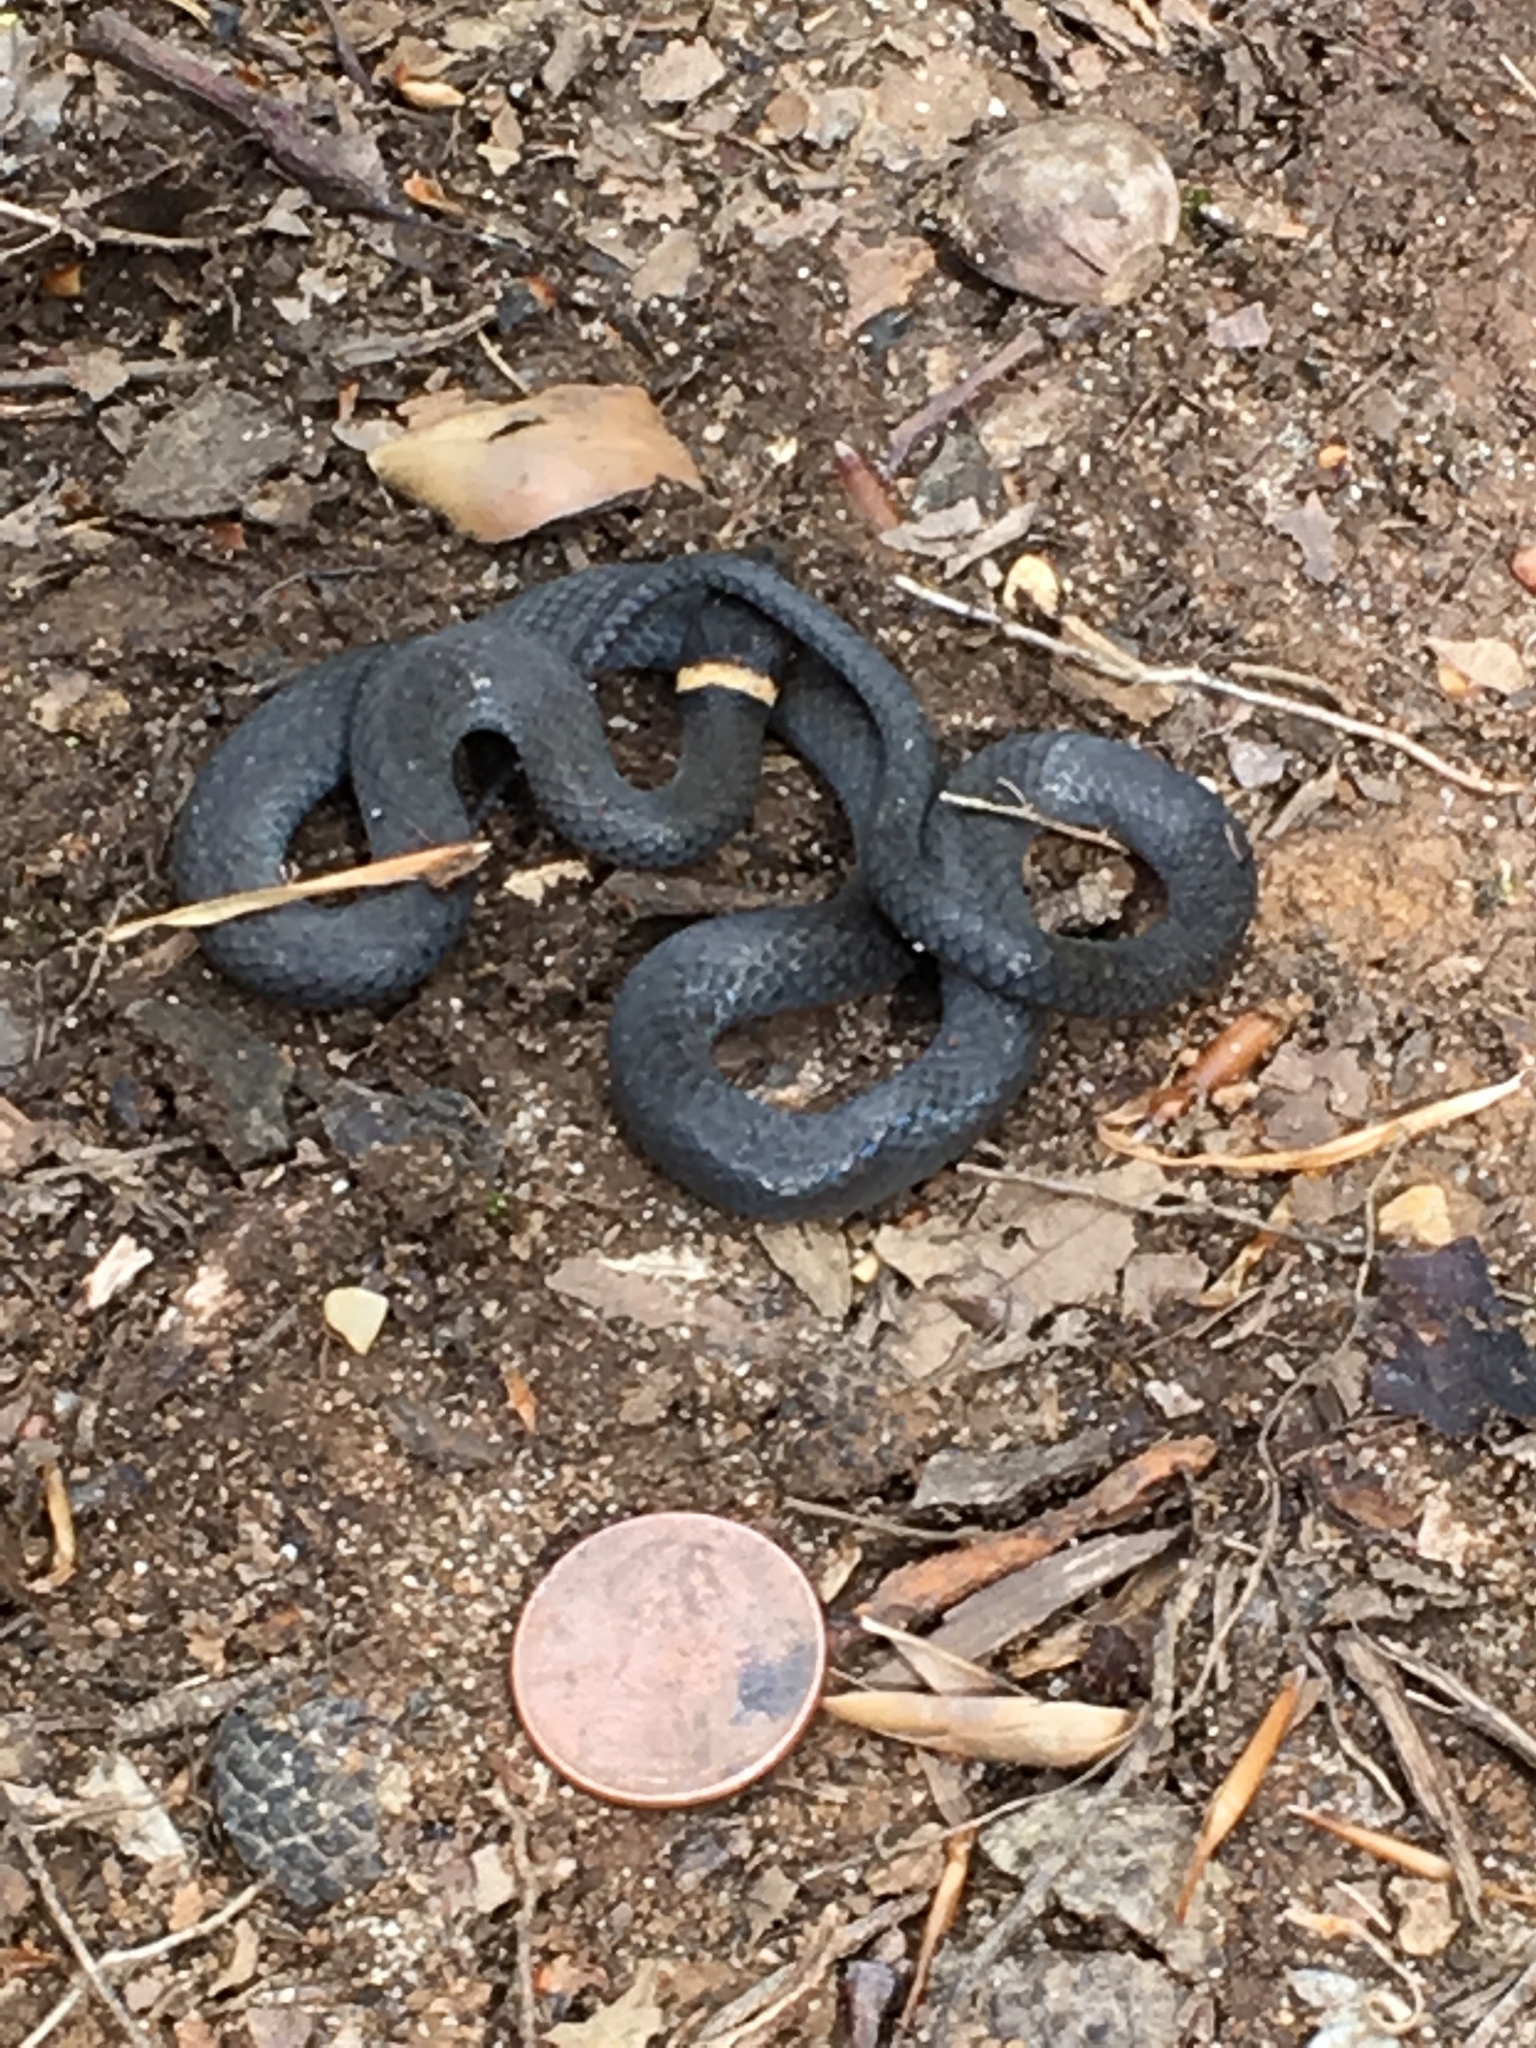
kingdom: Animalia
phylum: Chordata
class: Squamata
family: Colubridae
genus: Diadophis
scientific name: Diadophis punctatus
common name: Ringneck snake
